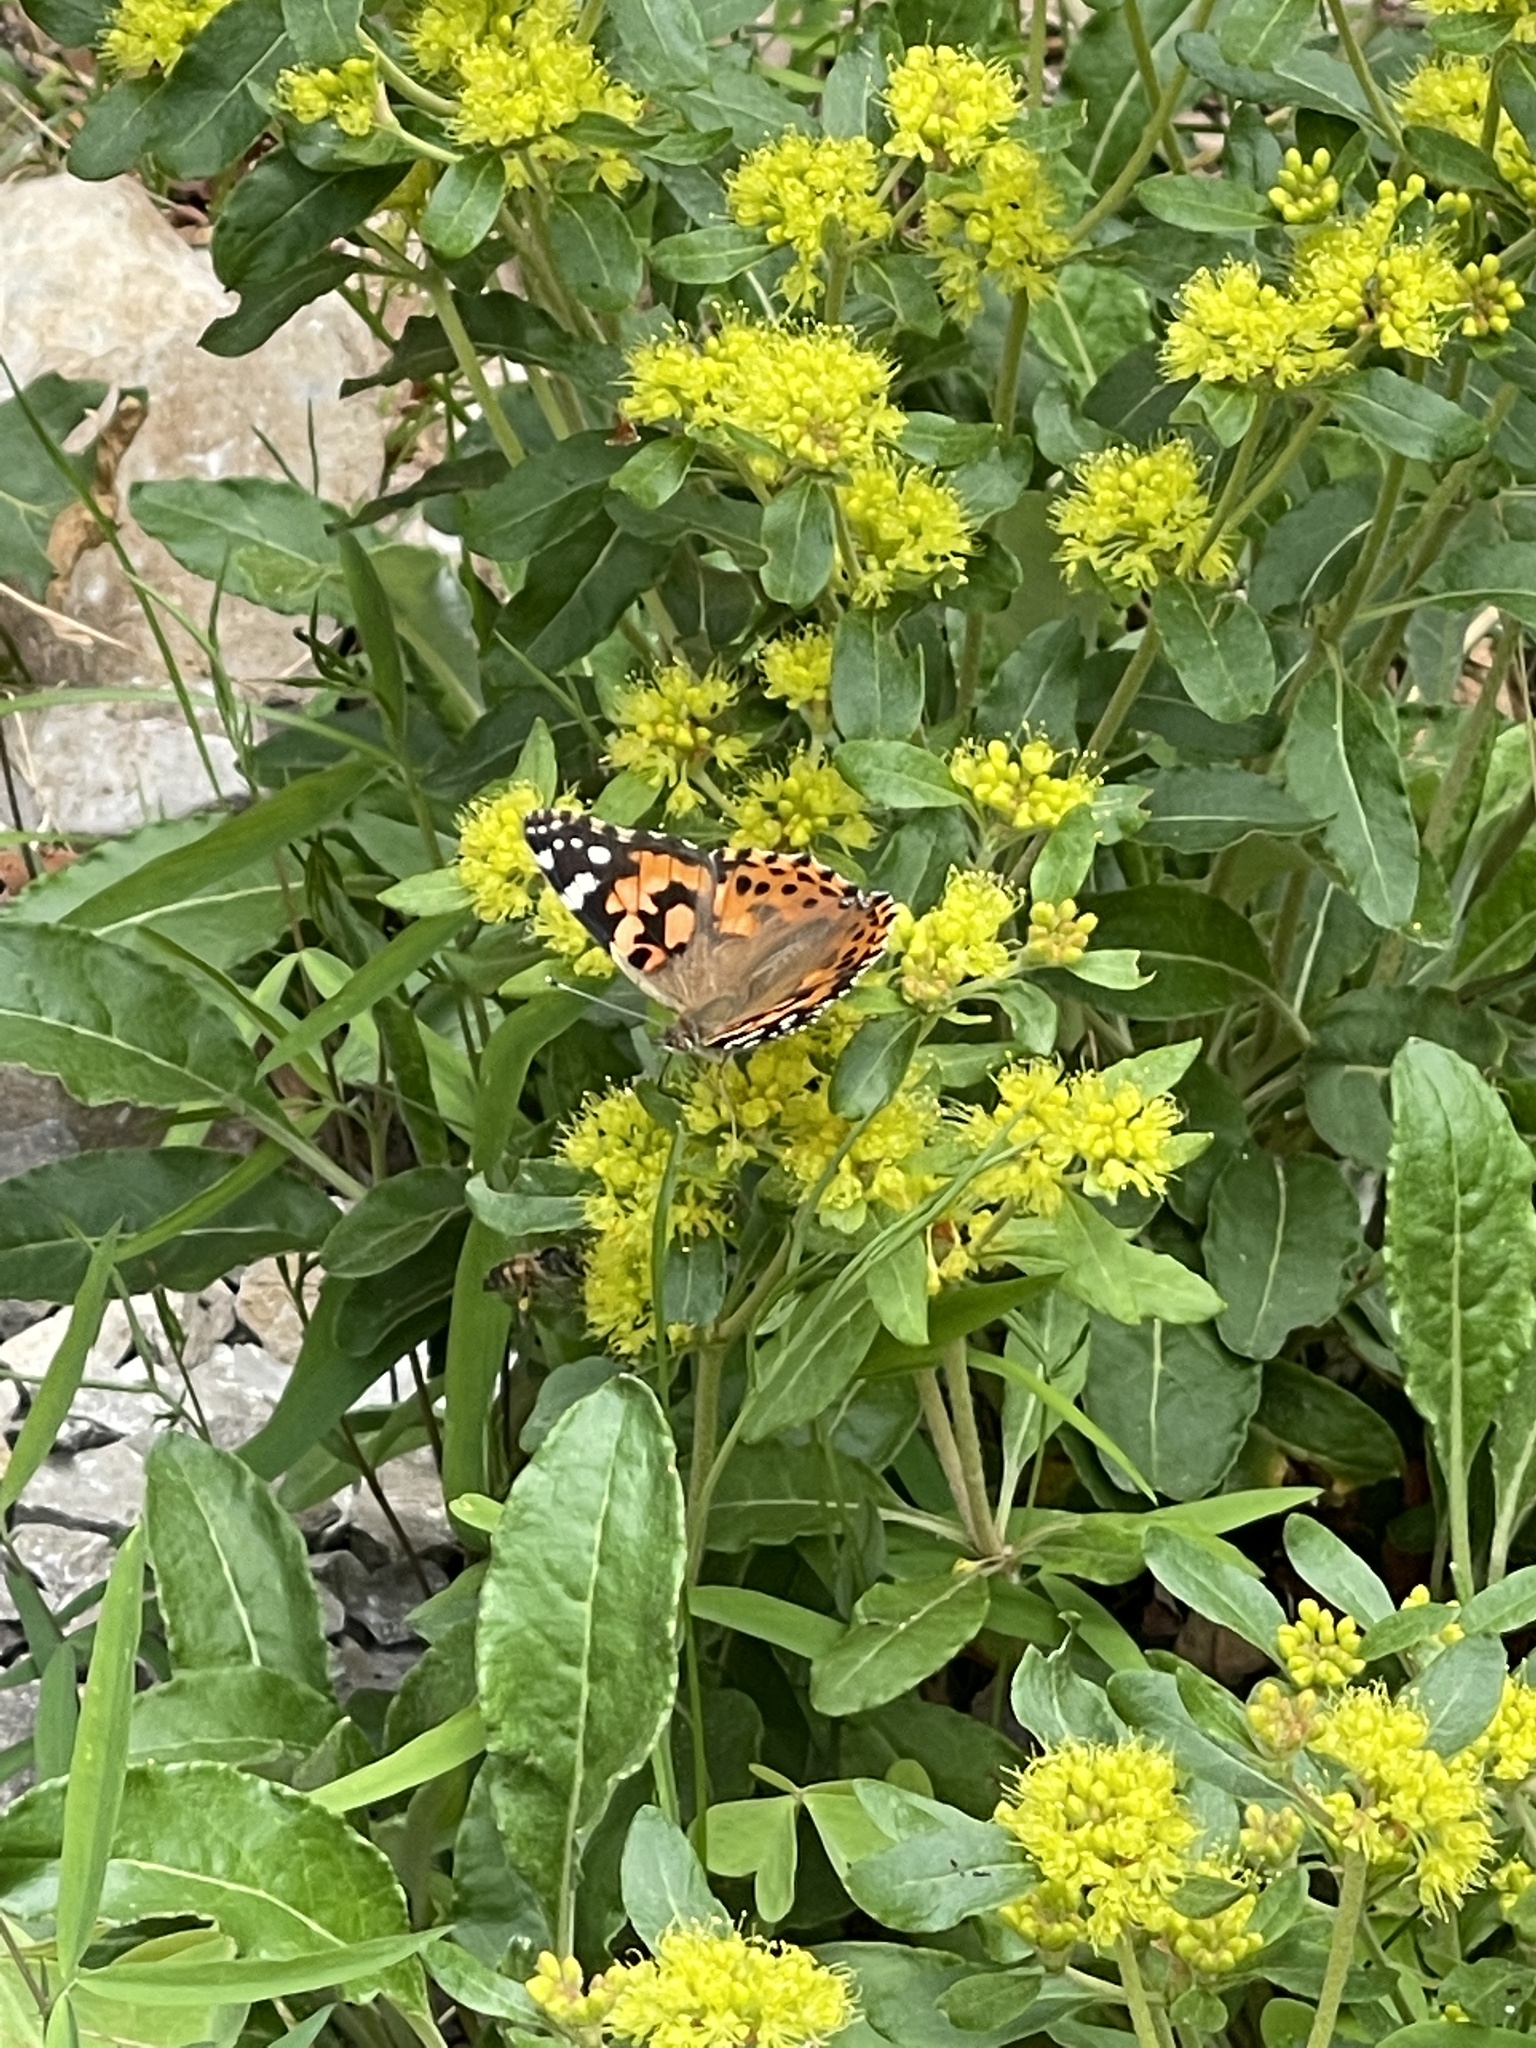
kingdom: Animalia
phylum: Arthropoda
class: Insecta
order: Lepidoptera
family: Nymphalidae
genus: Vanessa
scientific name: Vanessa cardui
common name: Painted lady
